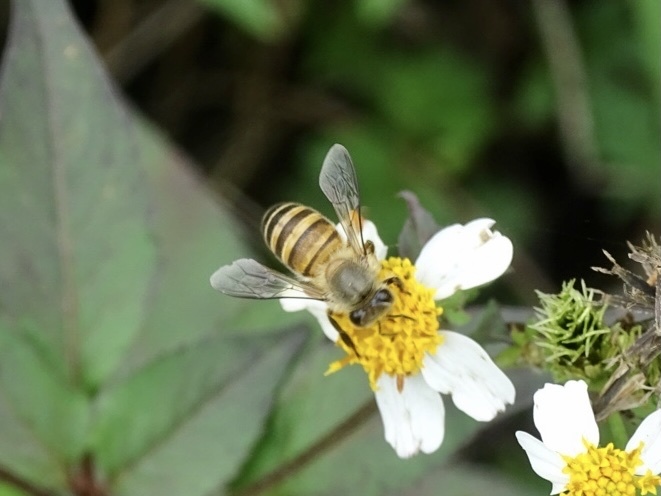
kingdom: Animalia
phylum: Arthropoda
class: Insecta
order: Hymenoptera
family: Apidae
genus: Apis
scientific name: Apis cerana
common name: Honey bee
